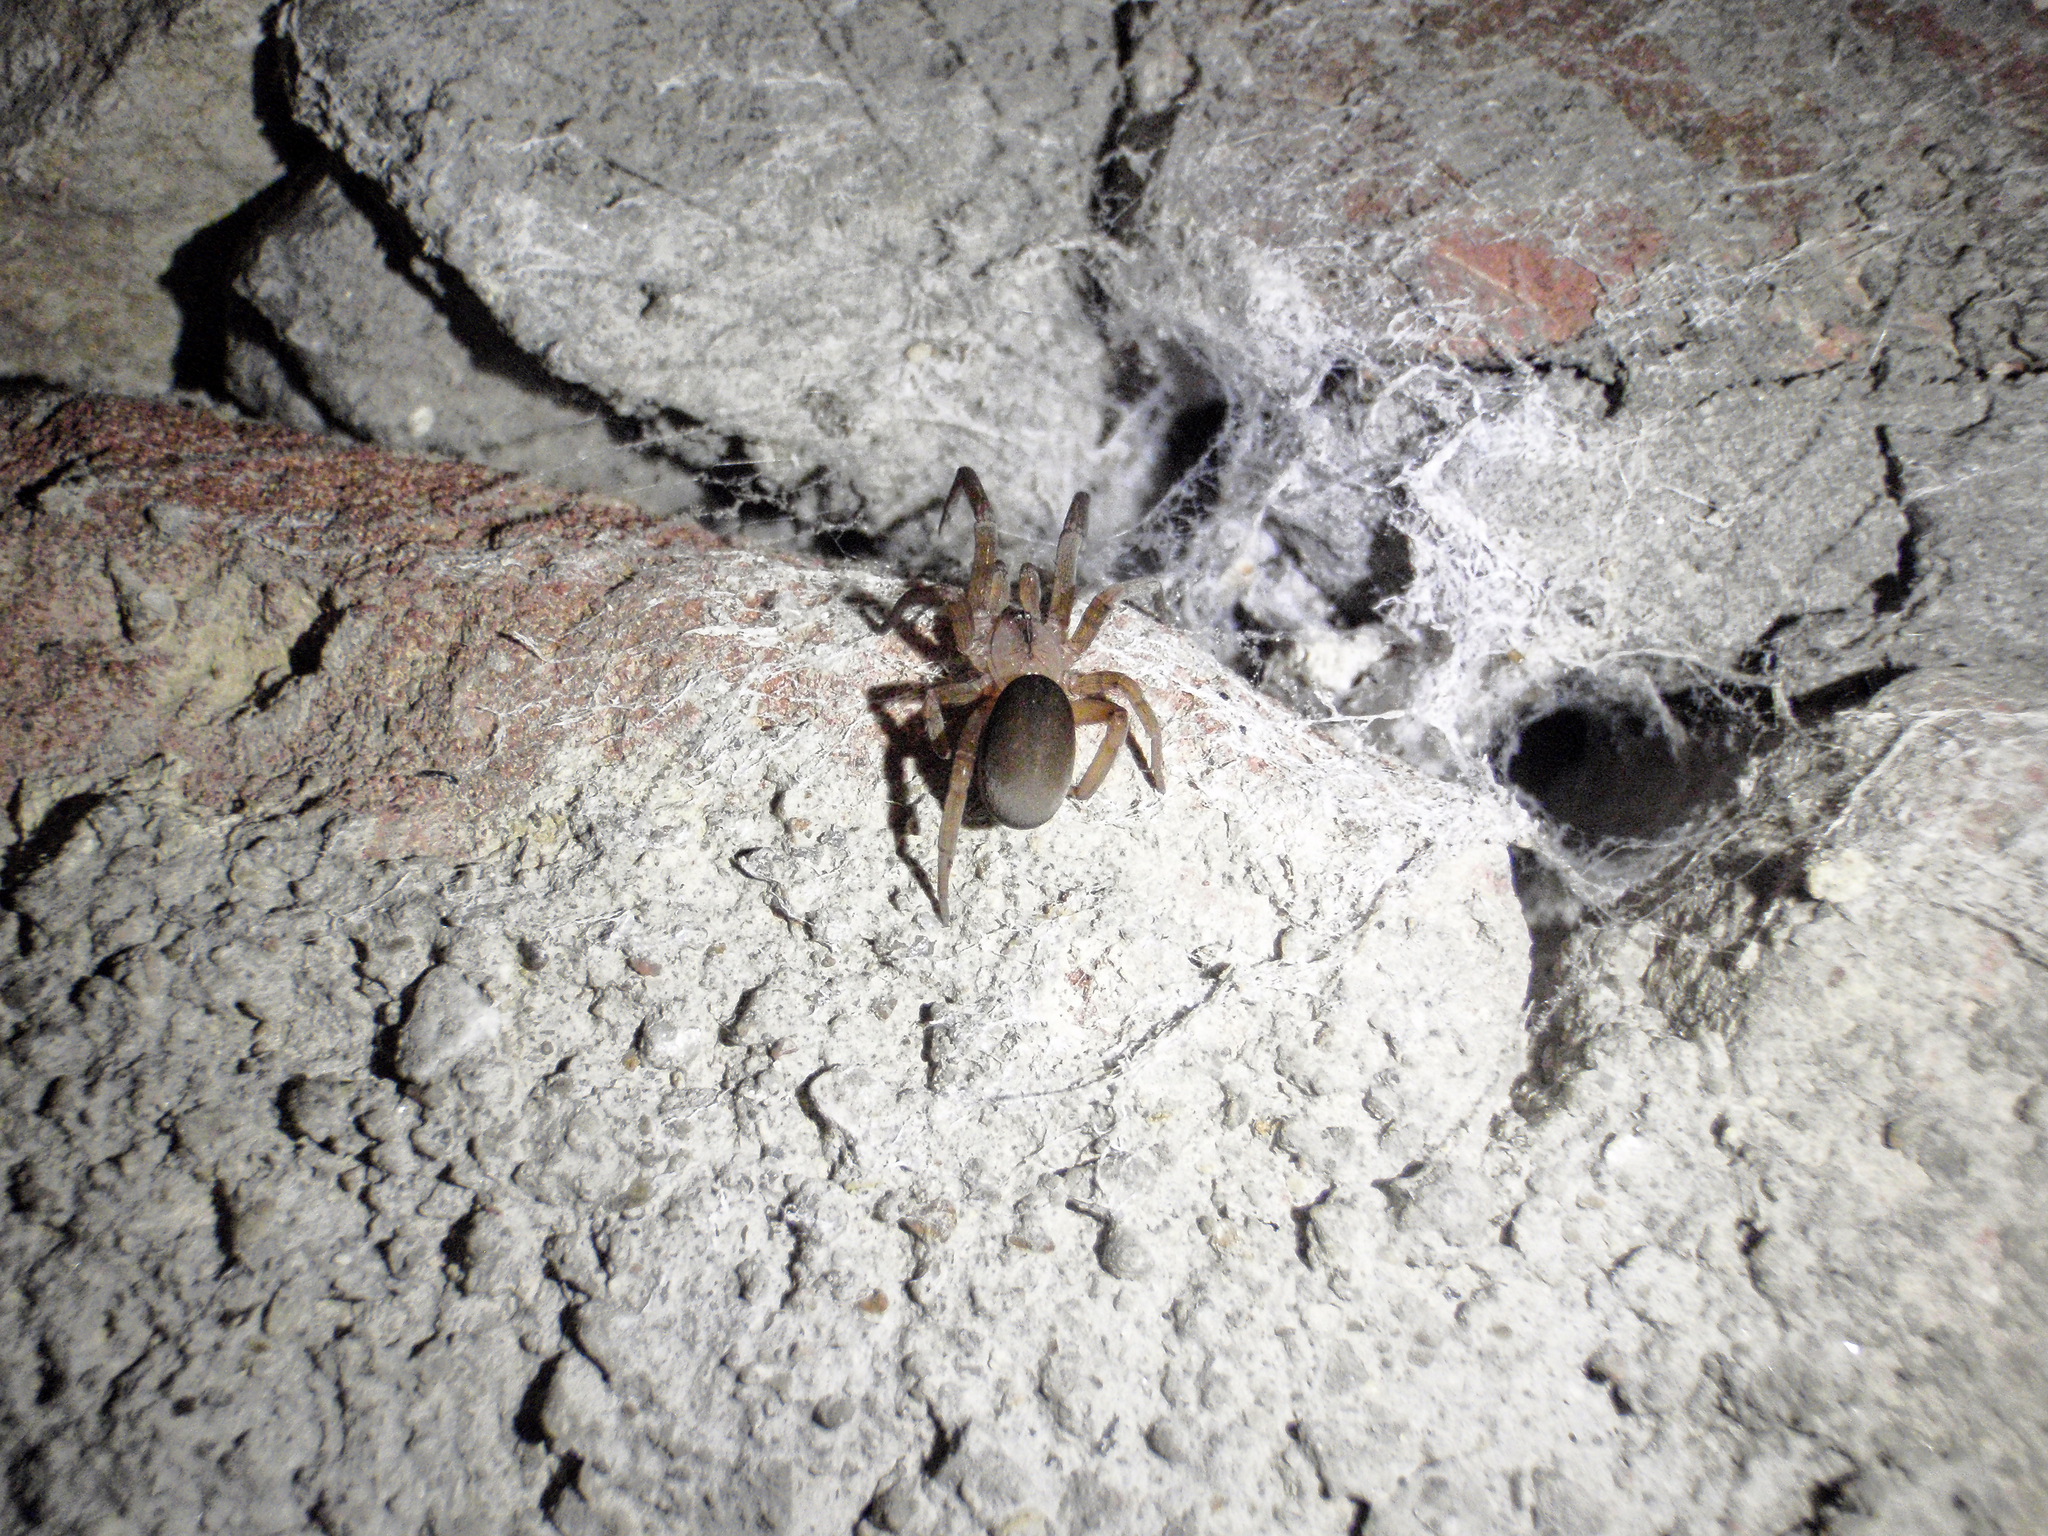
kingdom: Animalia
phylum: Arthropoda
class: Arachnida
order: Araneae
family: Filistatidae
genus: Filistata
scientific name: Filistata insidiatrix
